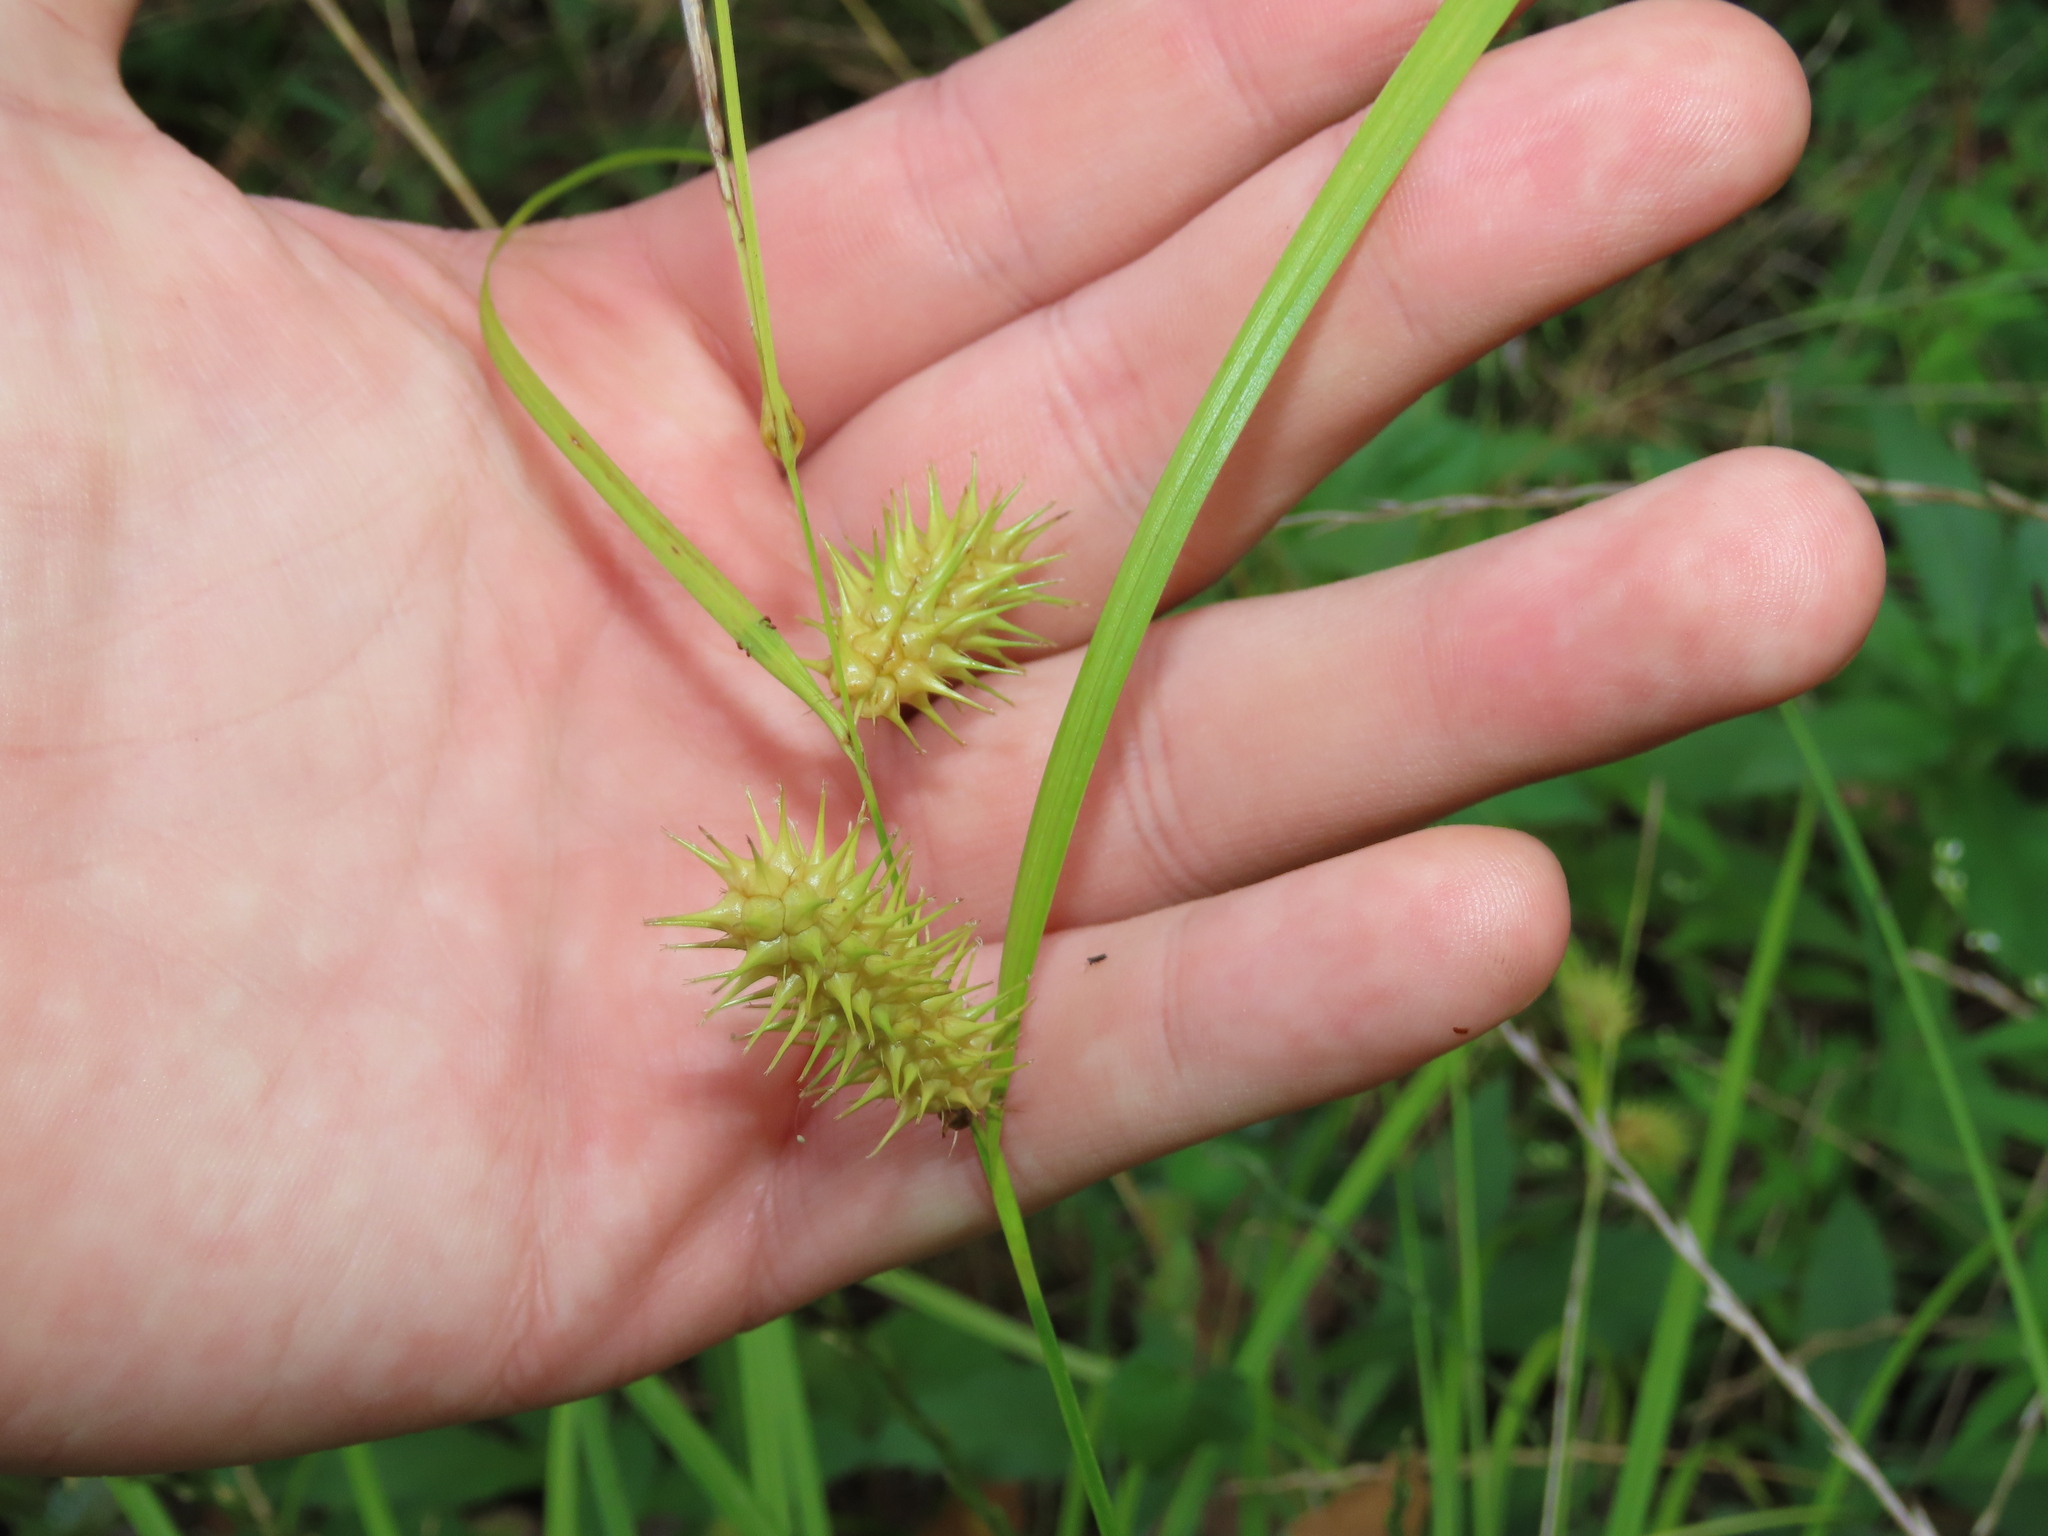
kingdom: Plantae
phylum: Tracheophyta
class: Liliopsida
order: Poales
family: Cyperaceae
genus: Carex
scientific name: Carex lurida
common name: Sallow sedge
